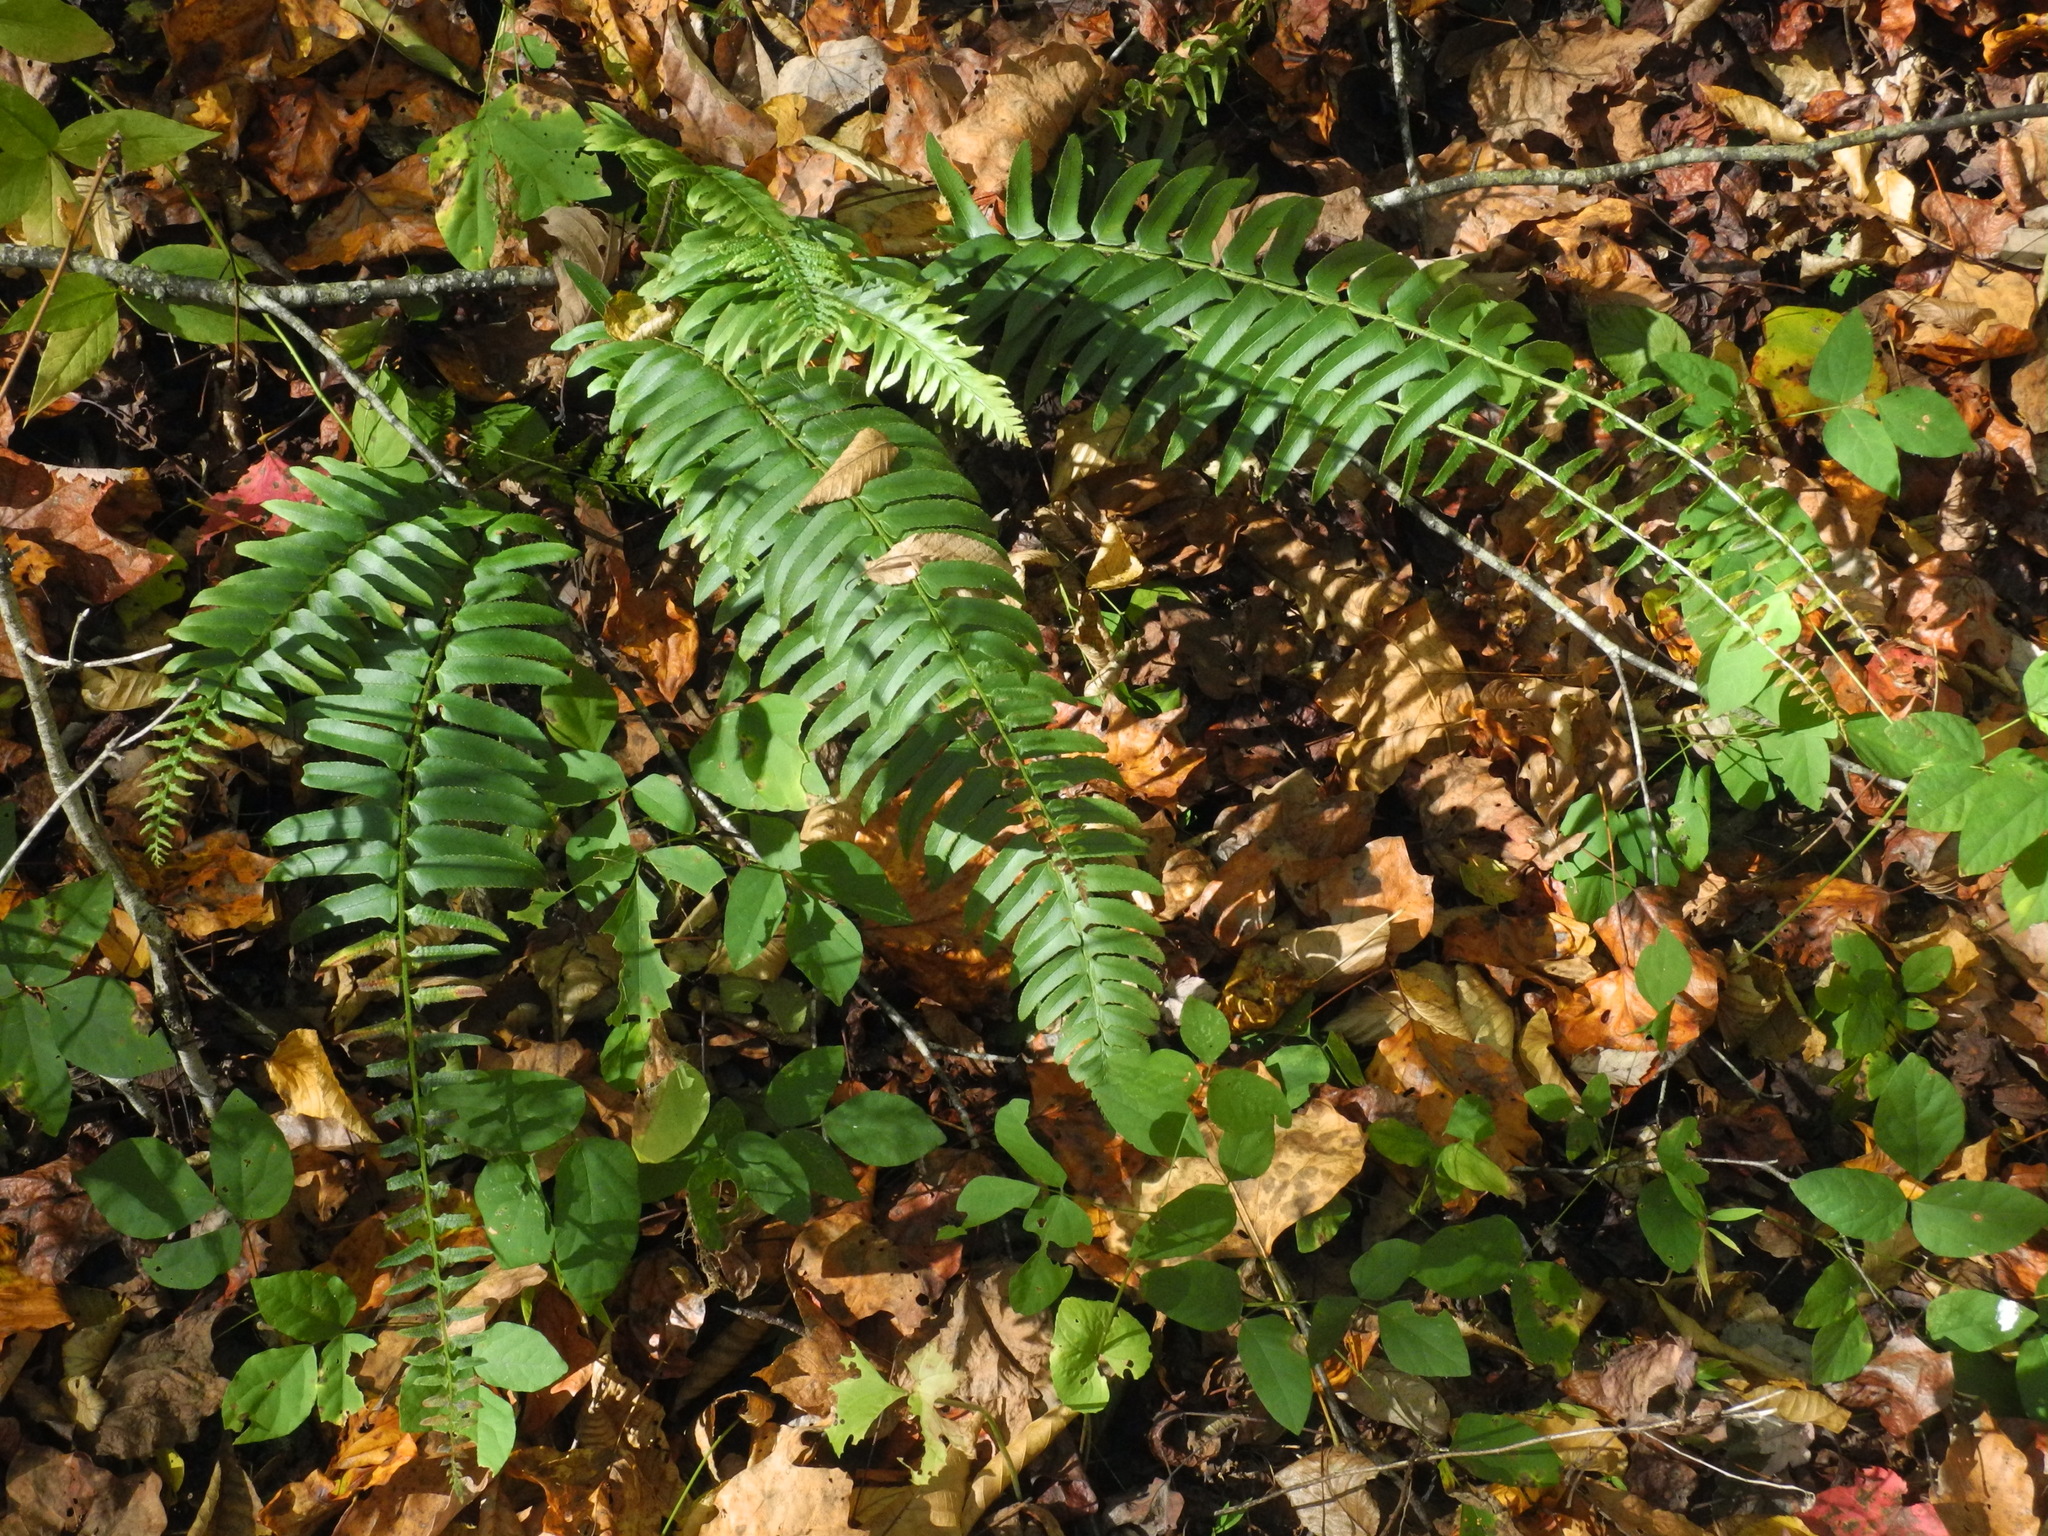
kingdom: Plantae
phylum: Tracheophyta
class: Polypodiopsida
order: Polypodiales
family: Dryopteridaceae
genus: Polystichum
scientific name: Polystichum acrostichoides
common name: Christmas fern
